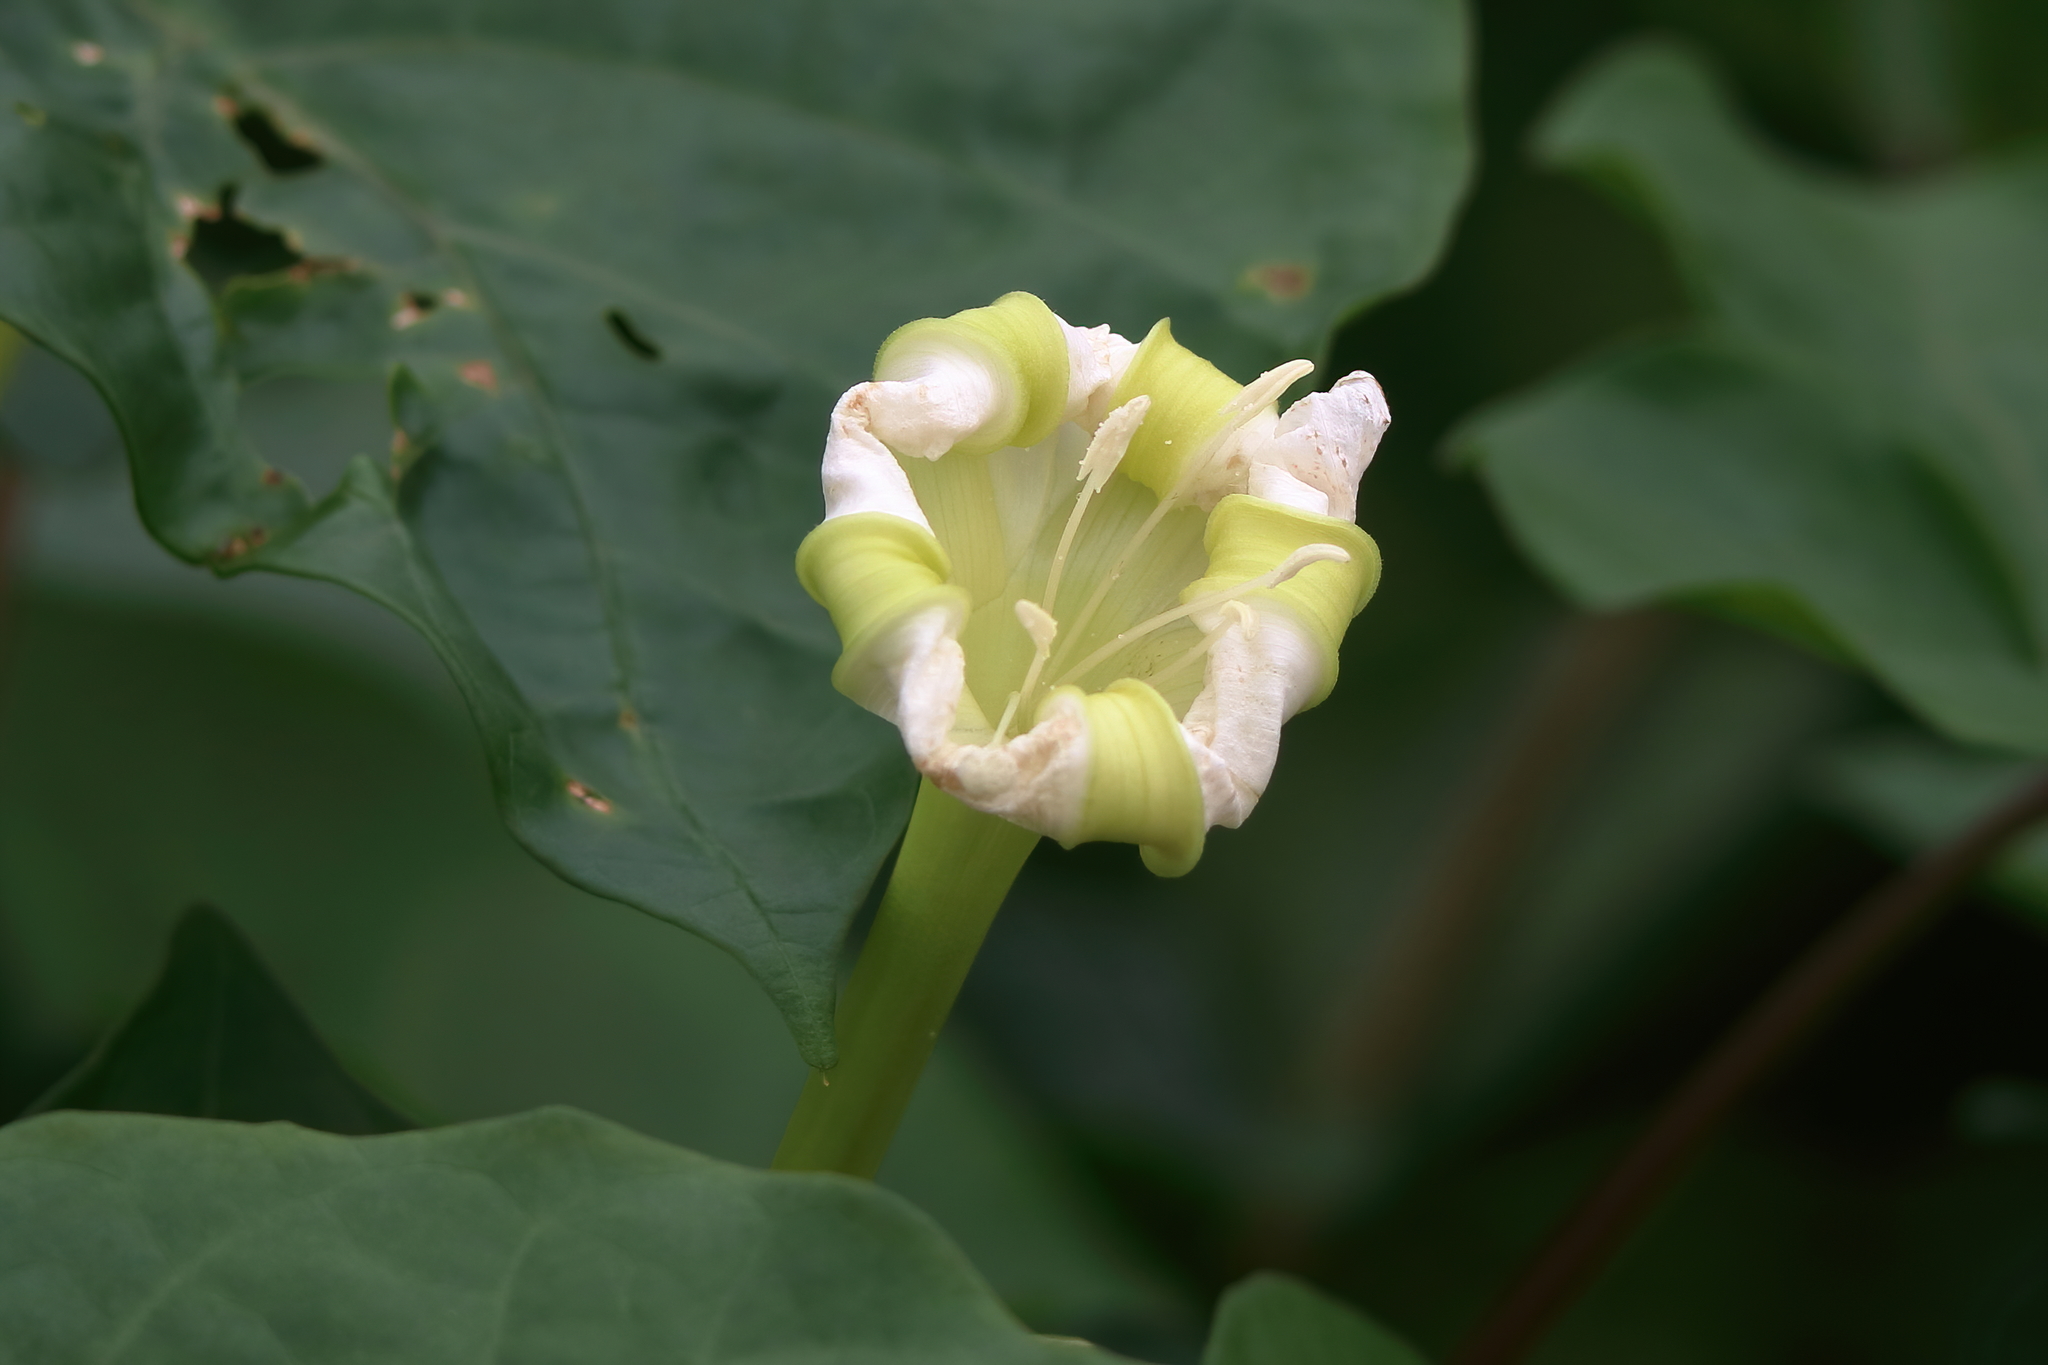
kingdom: Plantae
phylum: Tracheophyta
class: Magnoliopsida
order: Solanales
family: Convolvulaceae
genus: Ipomoea
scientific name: Ipomoea alba
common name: Moonflower
